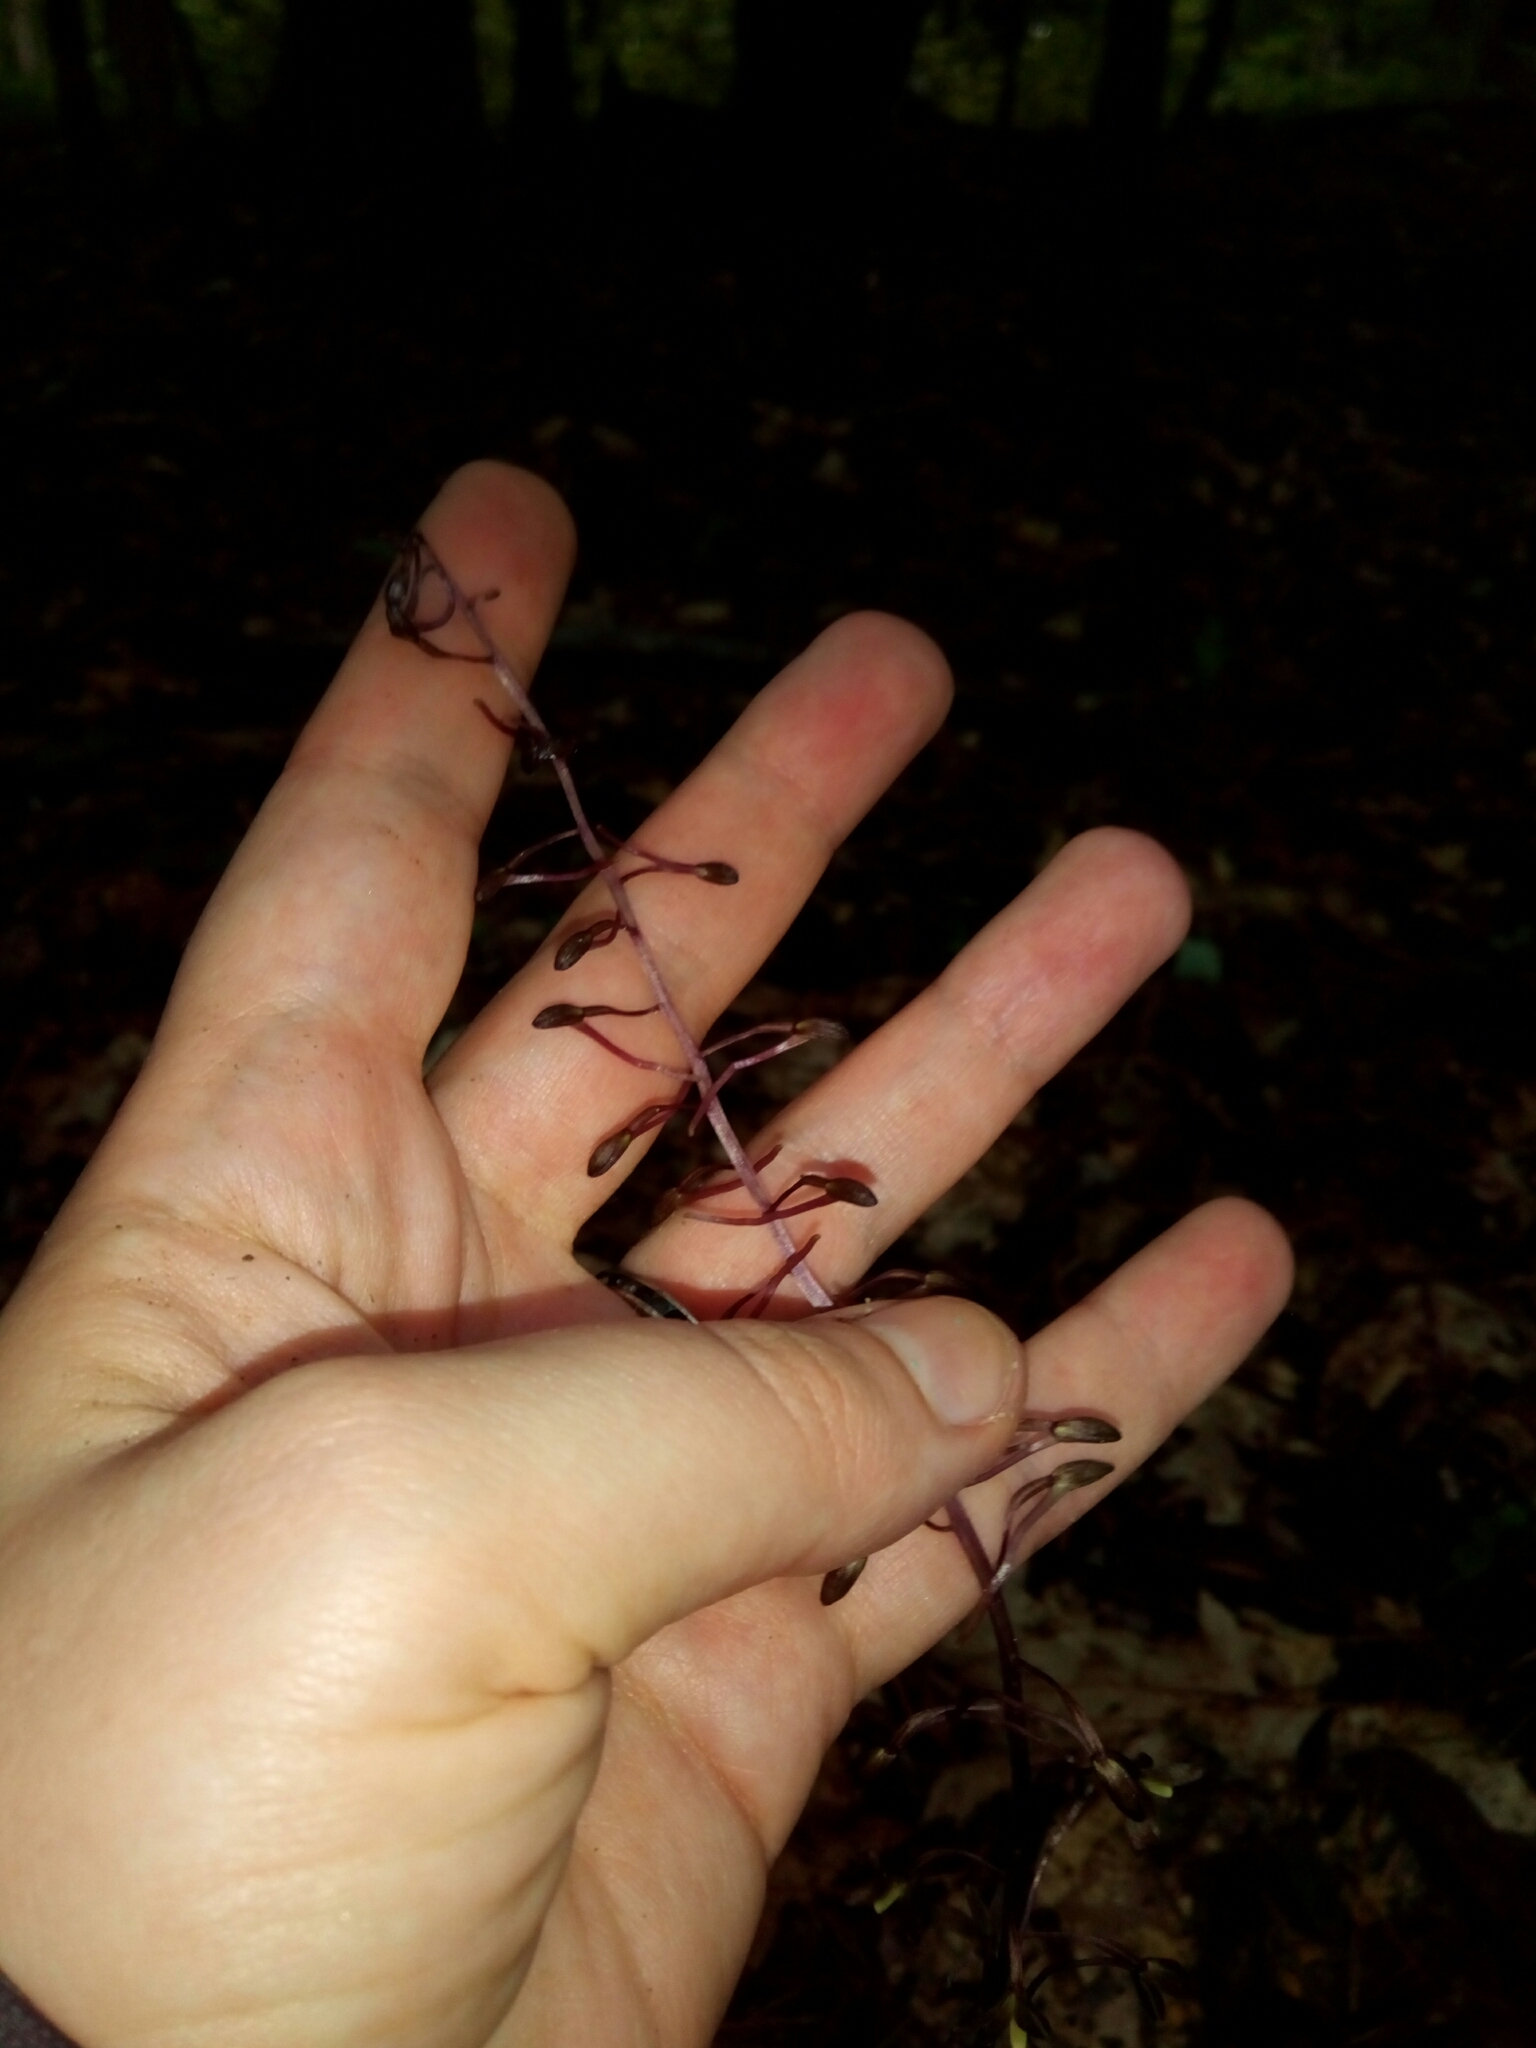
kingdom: Plantae
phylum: Tracheophyta
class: Liliopsida
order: Asparagales
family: Orchidaceae
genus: Tipularia
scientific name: Tipularia discolor
